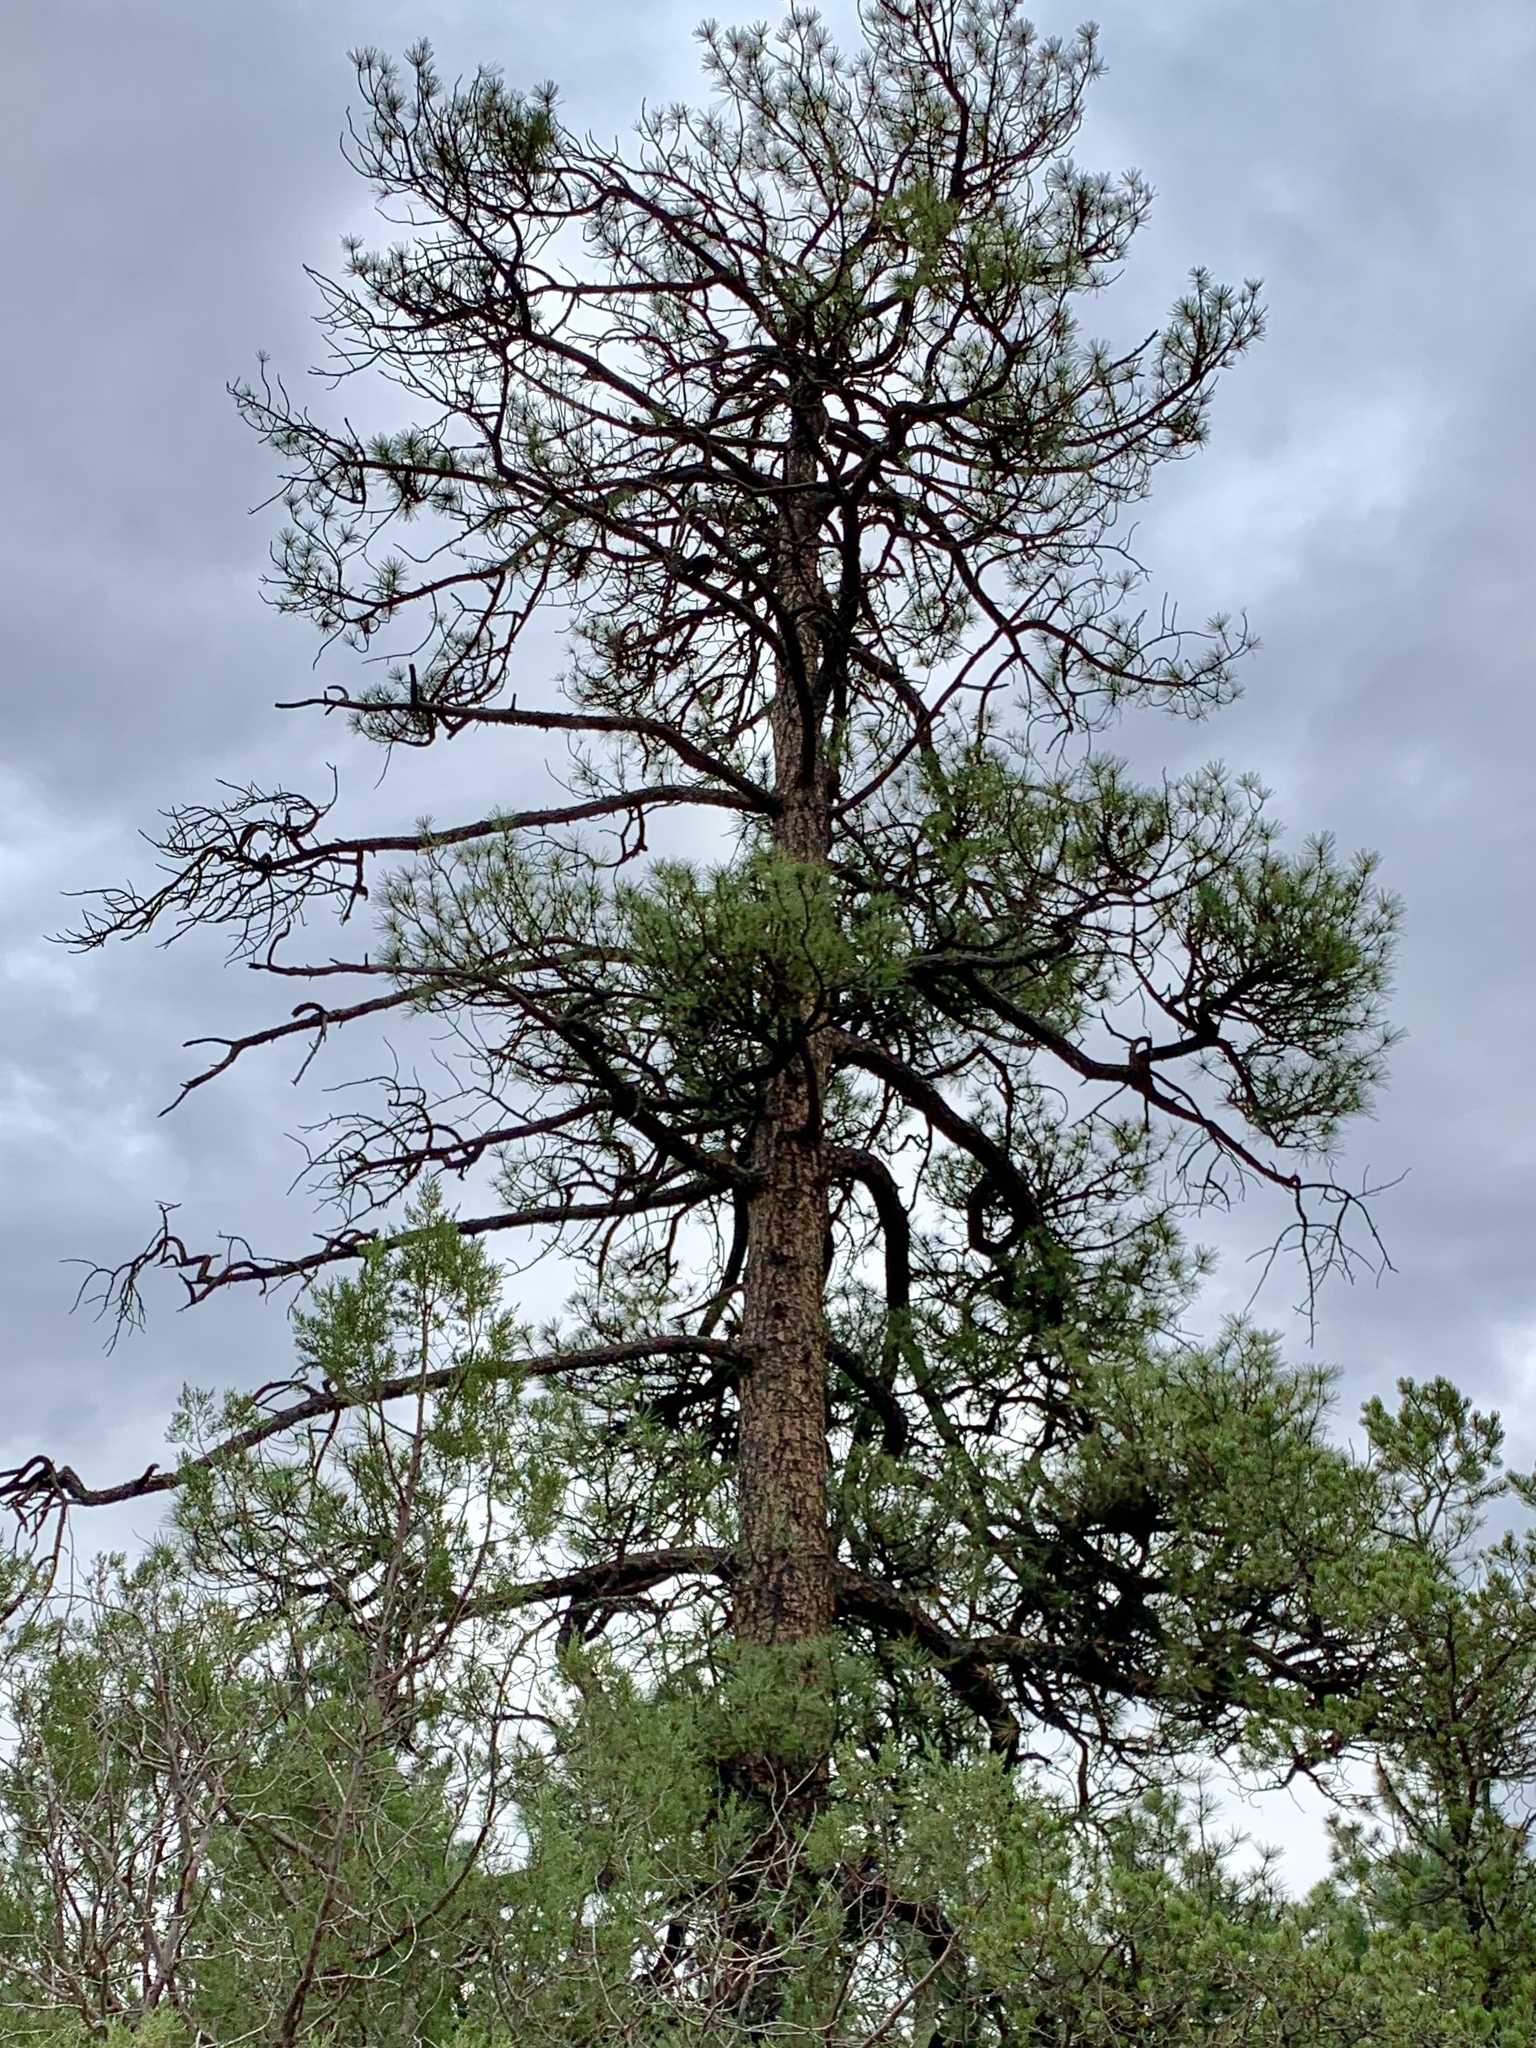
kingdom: Plantae
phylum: Tracheophyta
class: Pinopsida
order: Pinales
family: Pinaceae
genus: Pinus
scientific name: Pinus ponderosa
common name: Western yellow-pine
